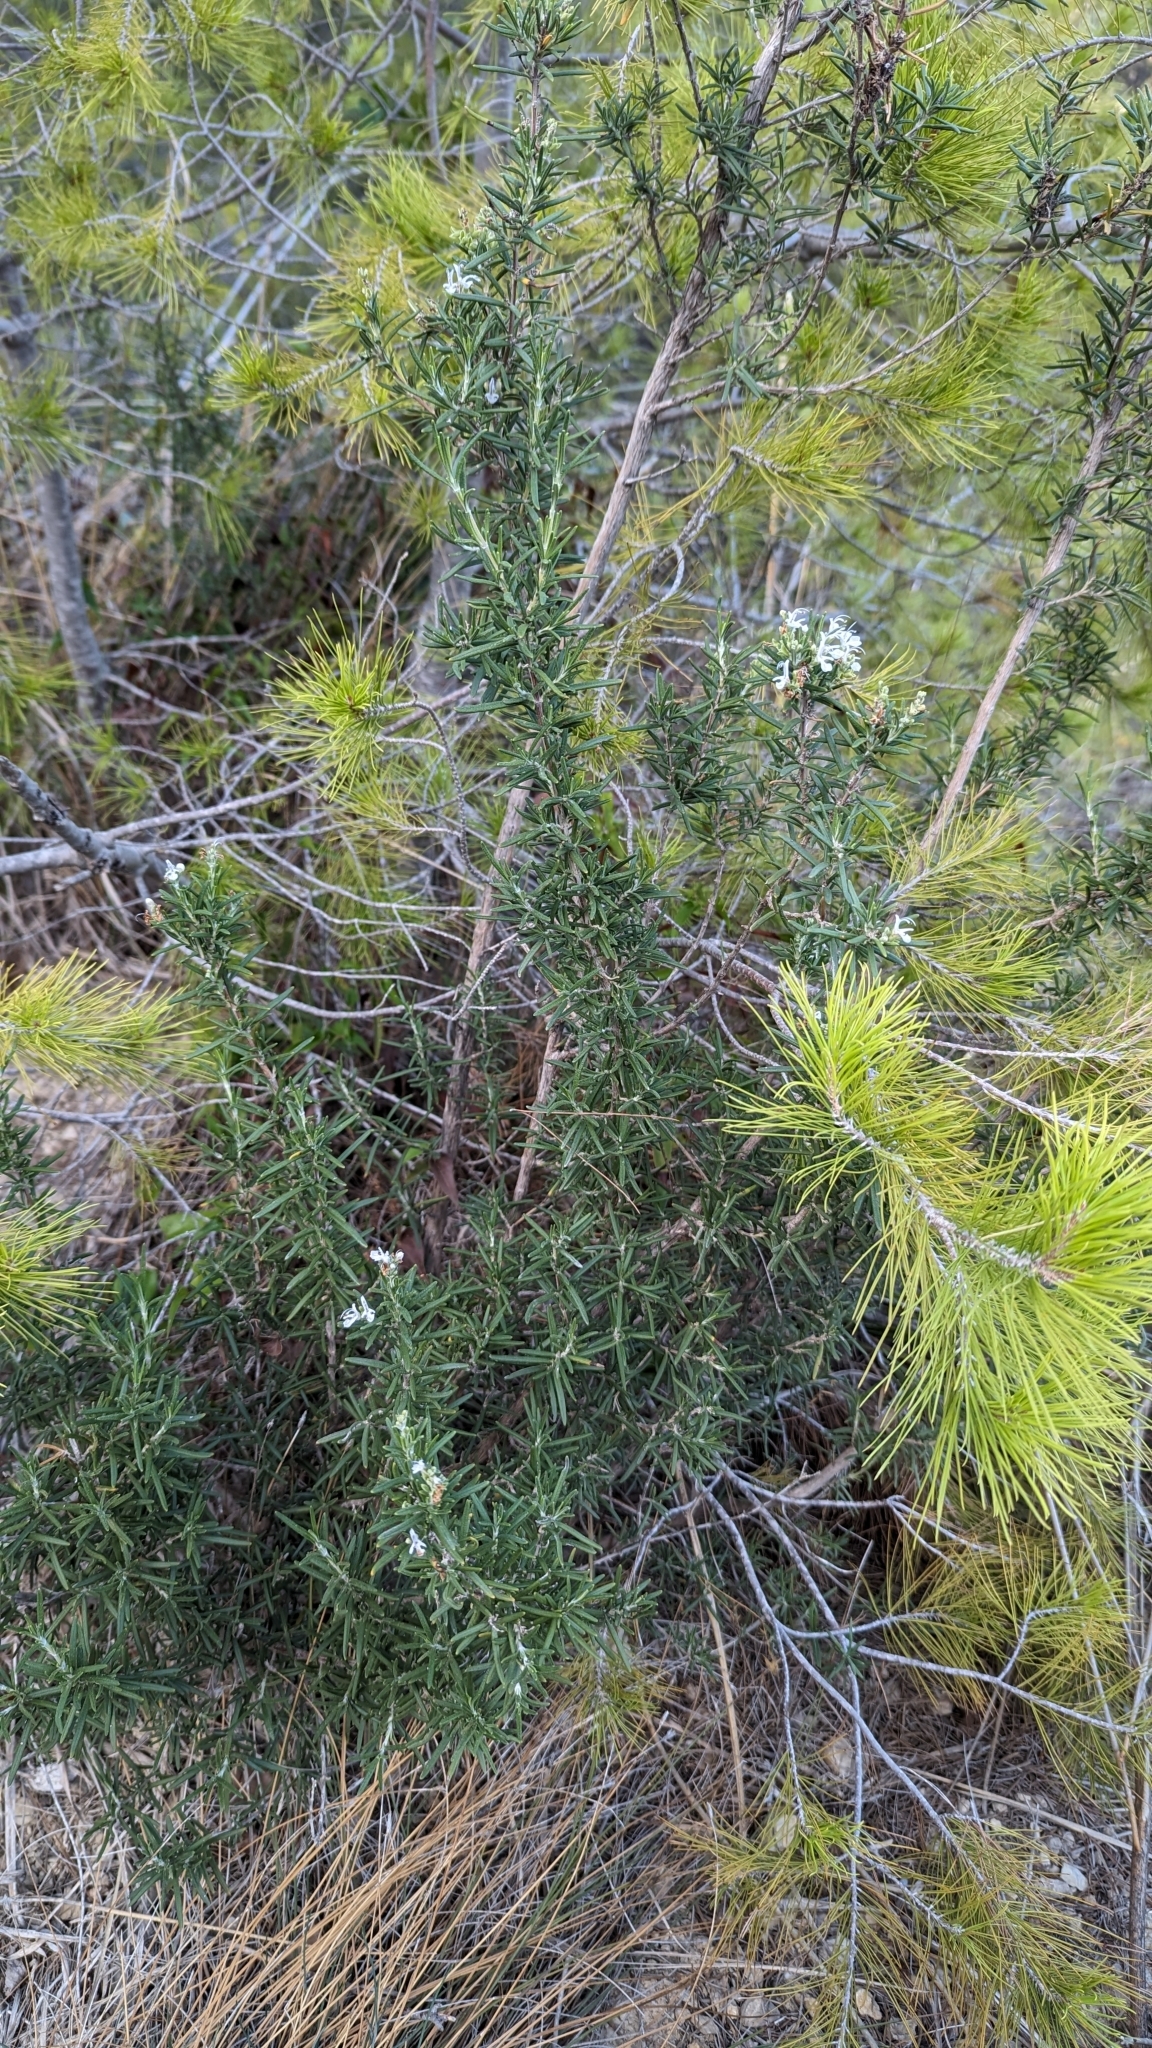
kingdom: Plantae
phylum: Tracheophyta
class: Magnoliopsida
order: Lamiales
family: Lamiaceae
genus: Salvia
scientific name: Salvia rosmarinus
